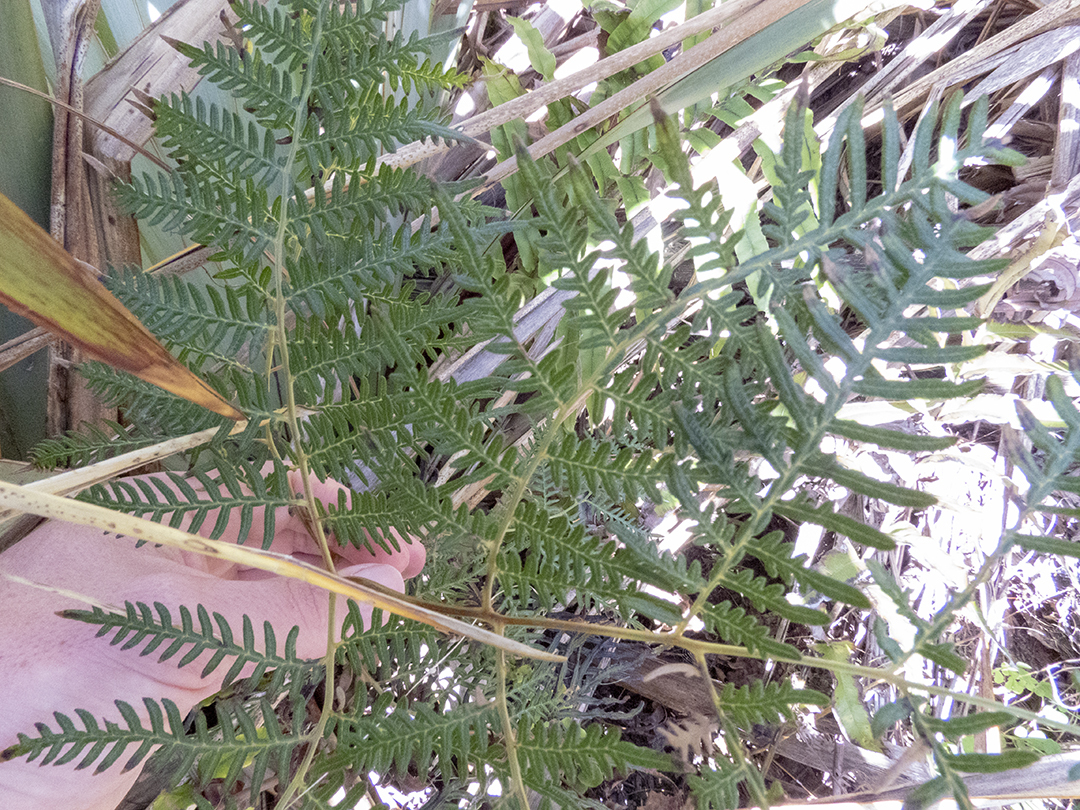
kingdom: Plantae
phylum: Tracheophyta
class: Polypodiopsida
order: Polypodiales
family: Dennstaedtiaceae
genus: Pteridium
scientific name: Pteridium esculentum
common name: Bracken fern
